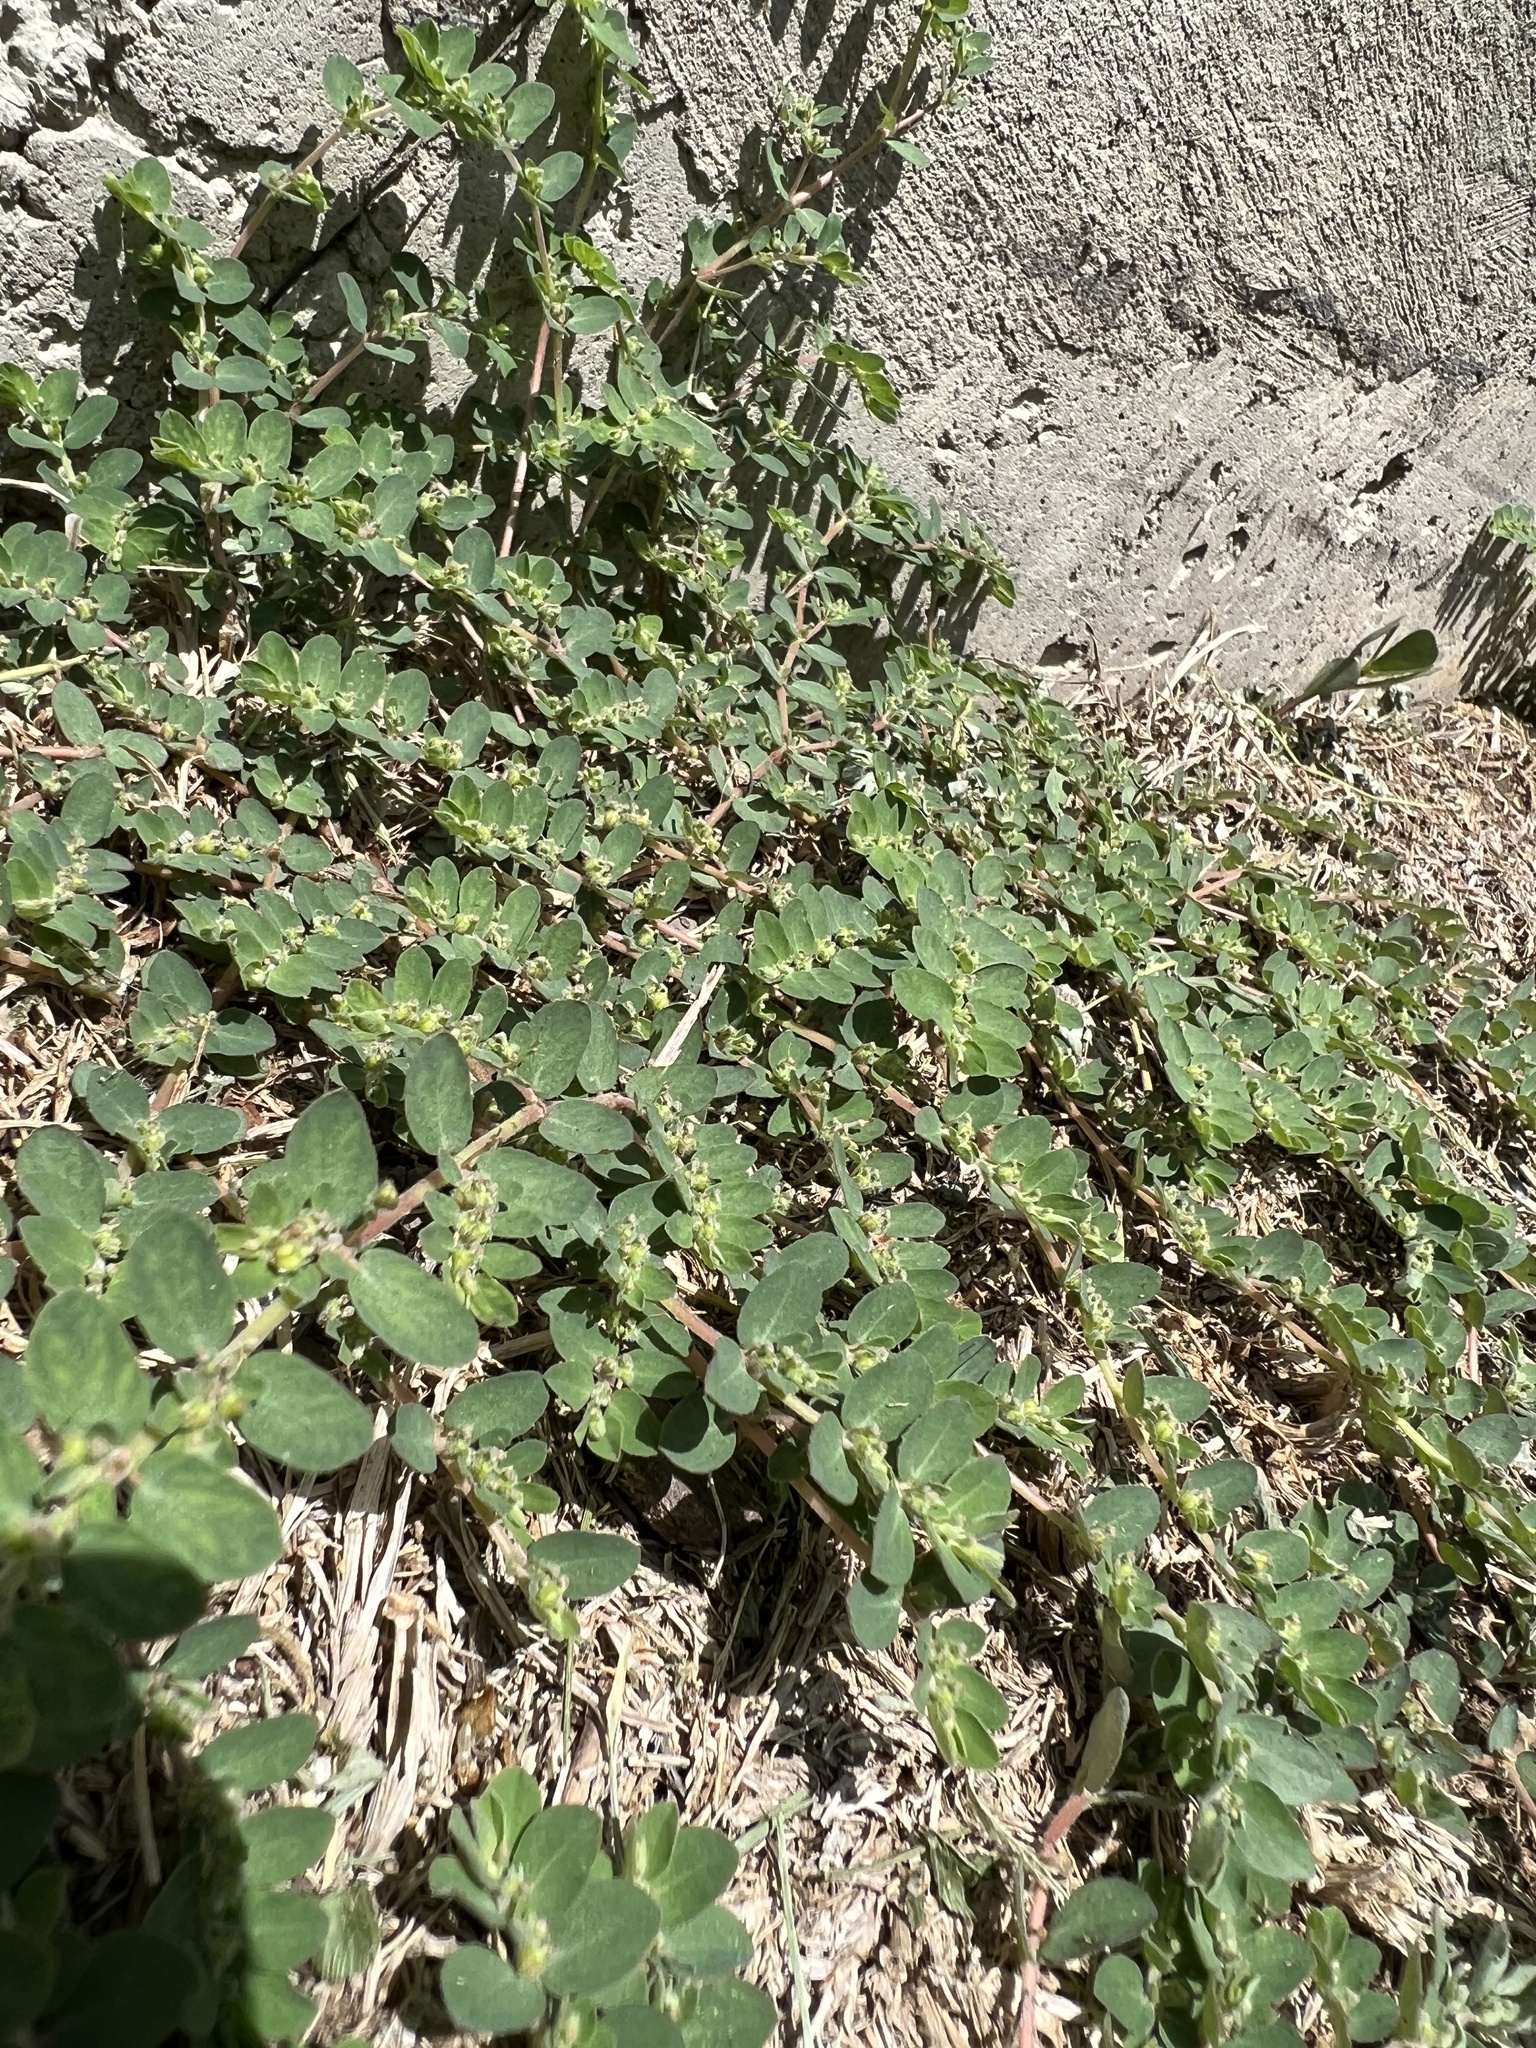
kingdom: Plantae
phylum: Tracheophyta
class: Magnoliopsida
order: Malpighiales
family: Euphorbiaceae
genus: Euphorbia
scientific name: Euphorbia prostrata
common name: Prostrate sandmat
